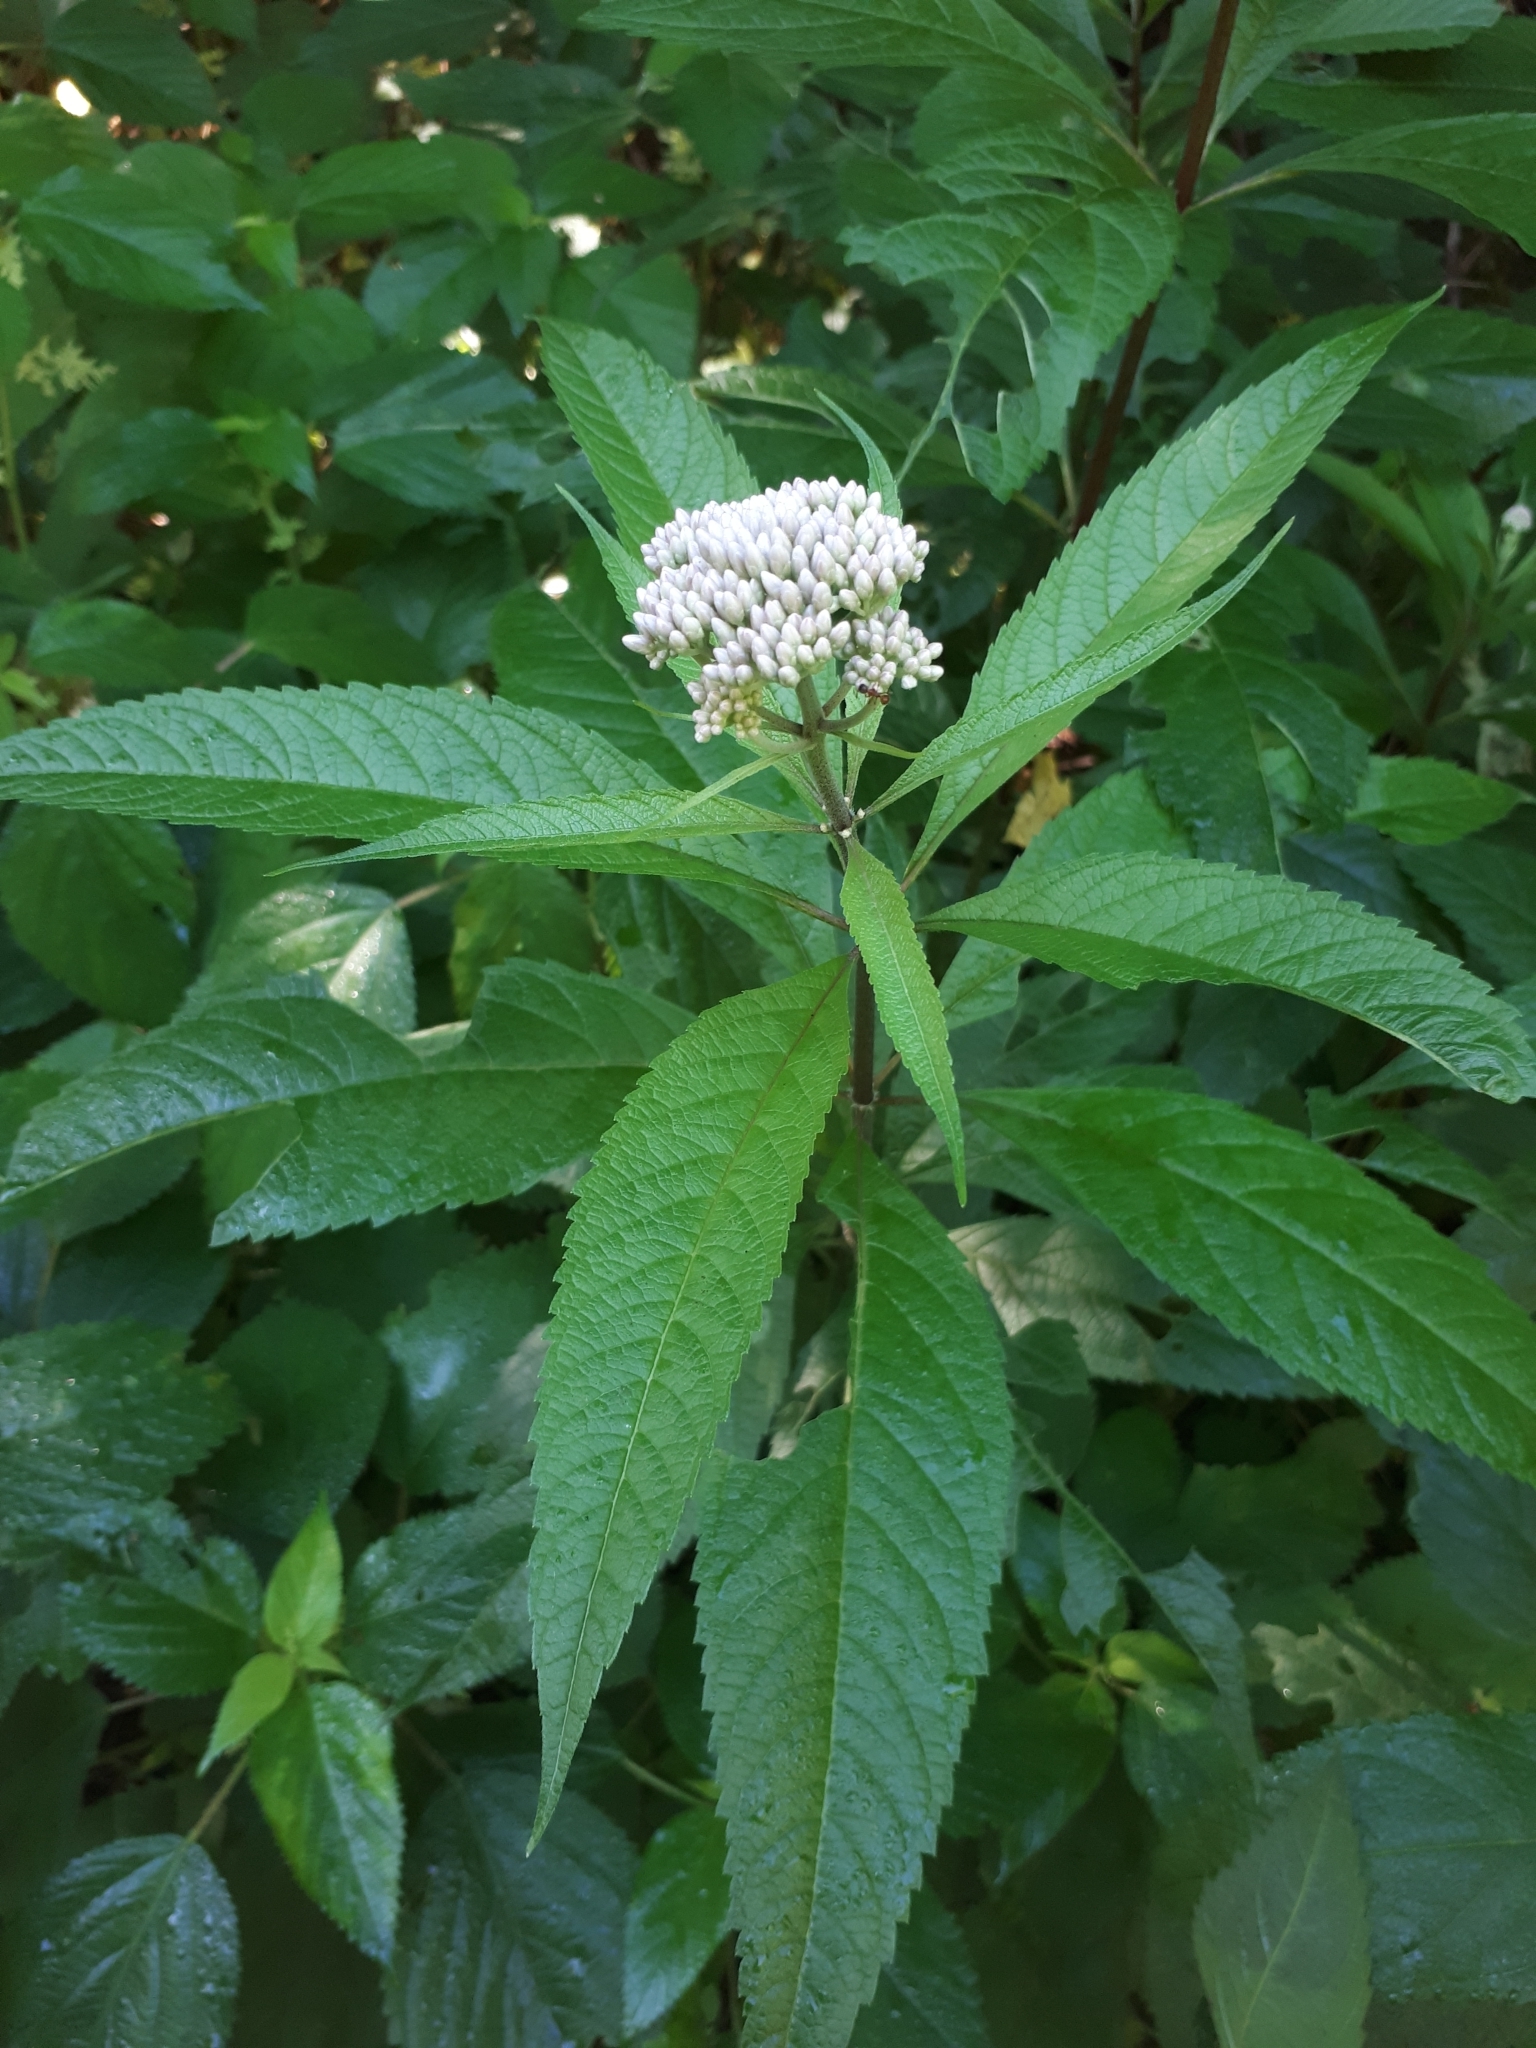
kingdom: Plantae
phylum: Tracheophyta
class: Magnoliopsida
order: Asterales
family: Asteraceae
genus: Eutrochium
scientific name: Eutrochium maculatum
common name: Spotted joe pye weed
